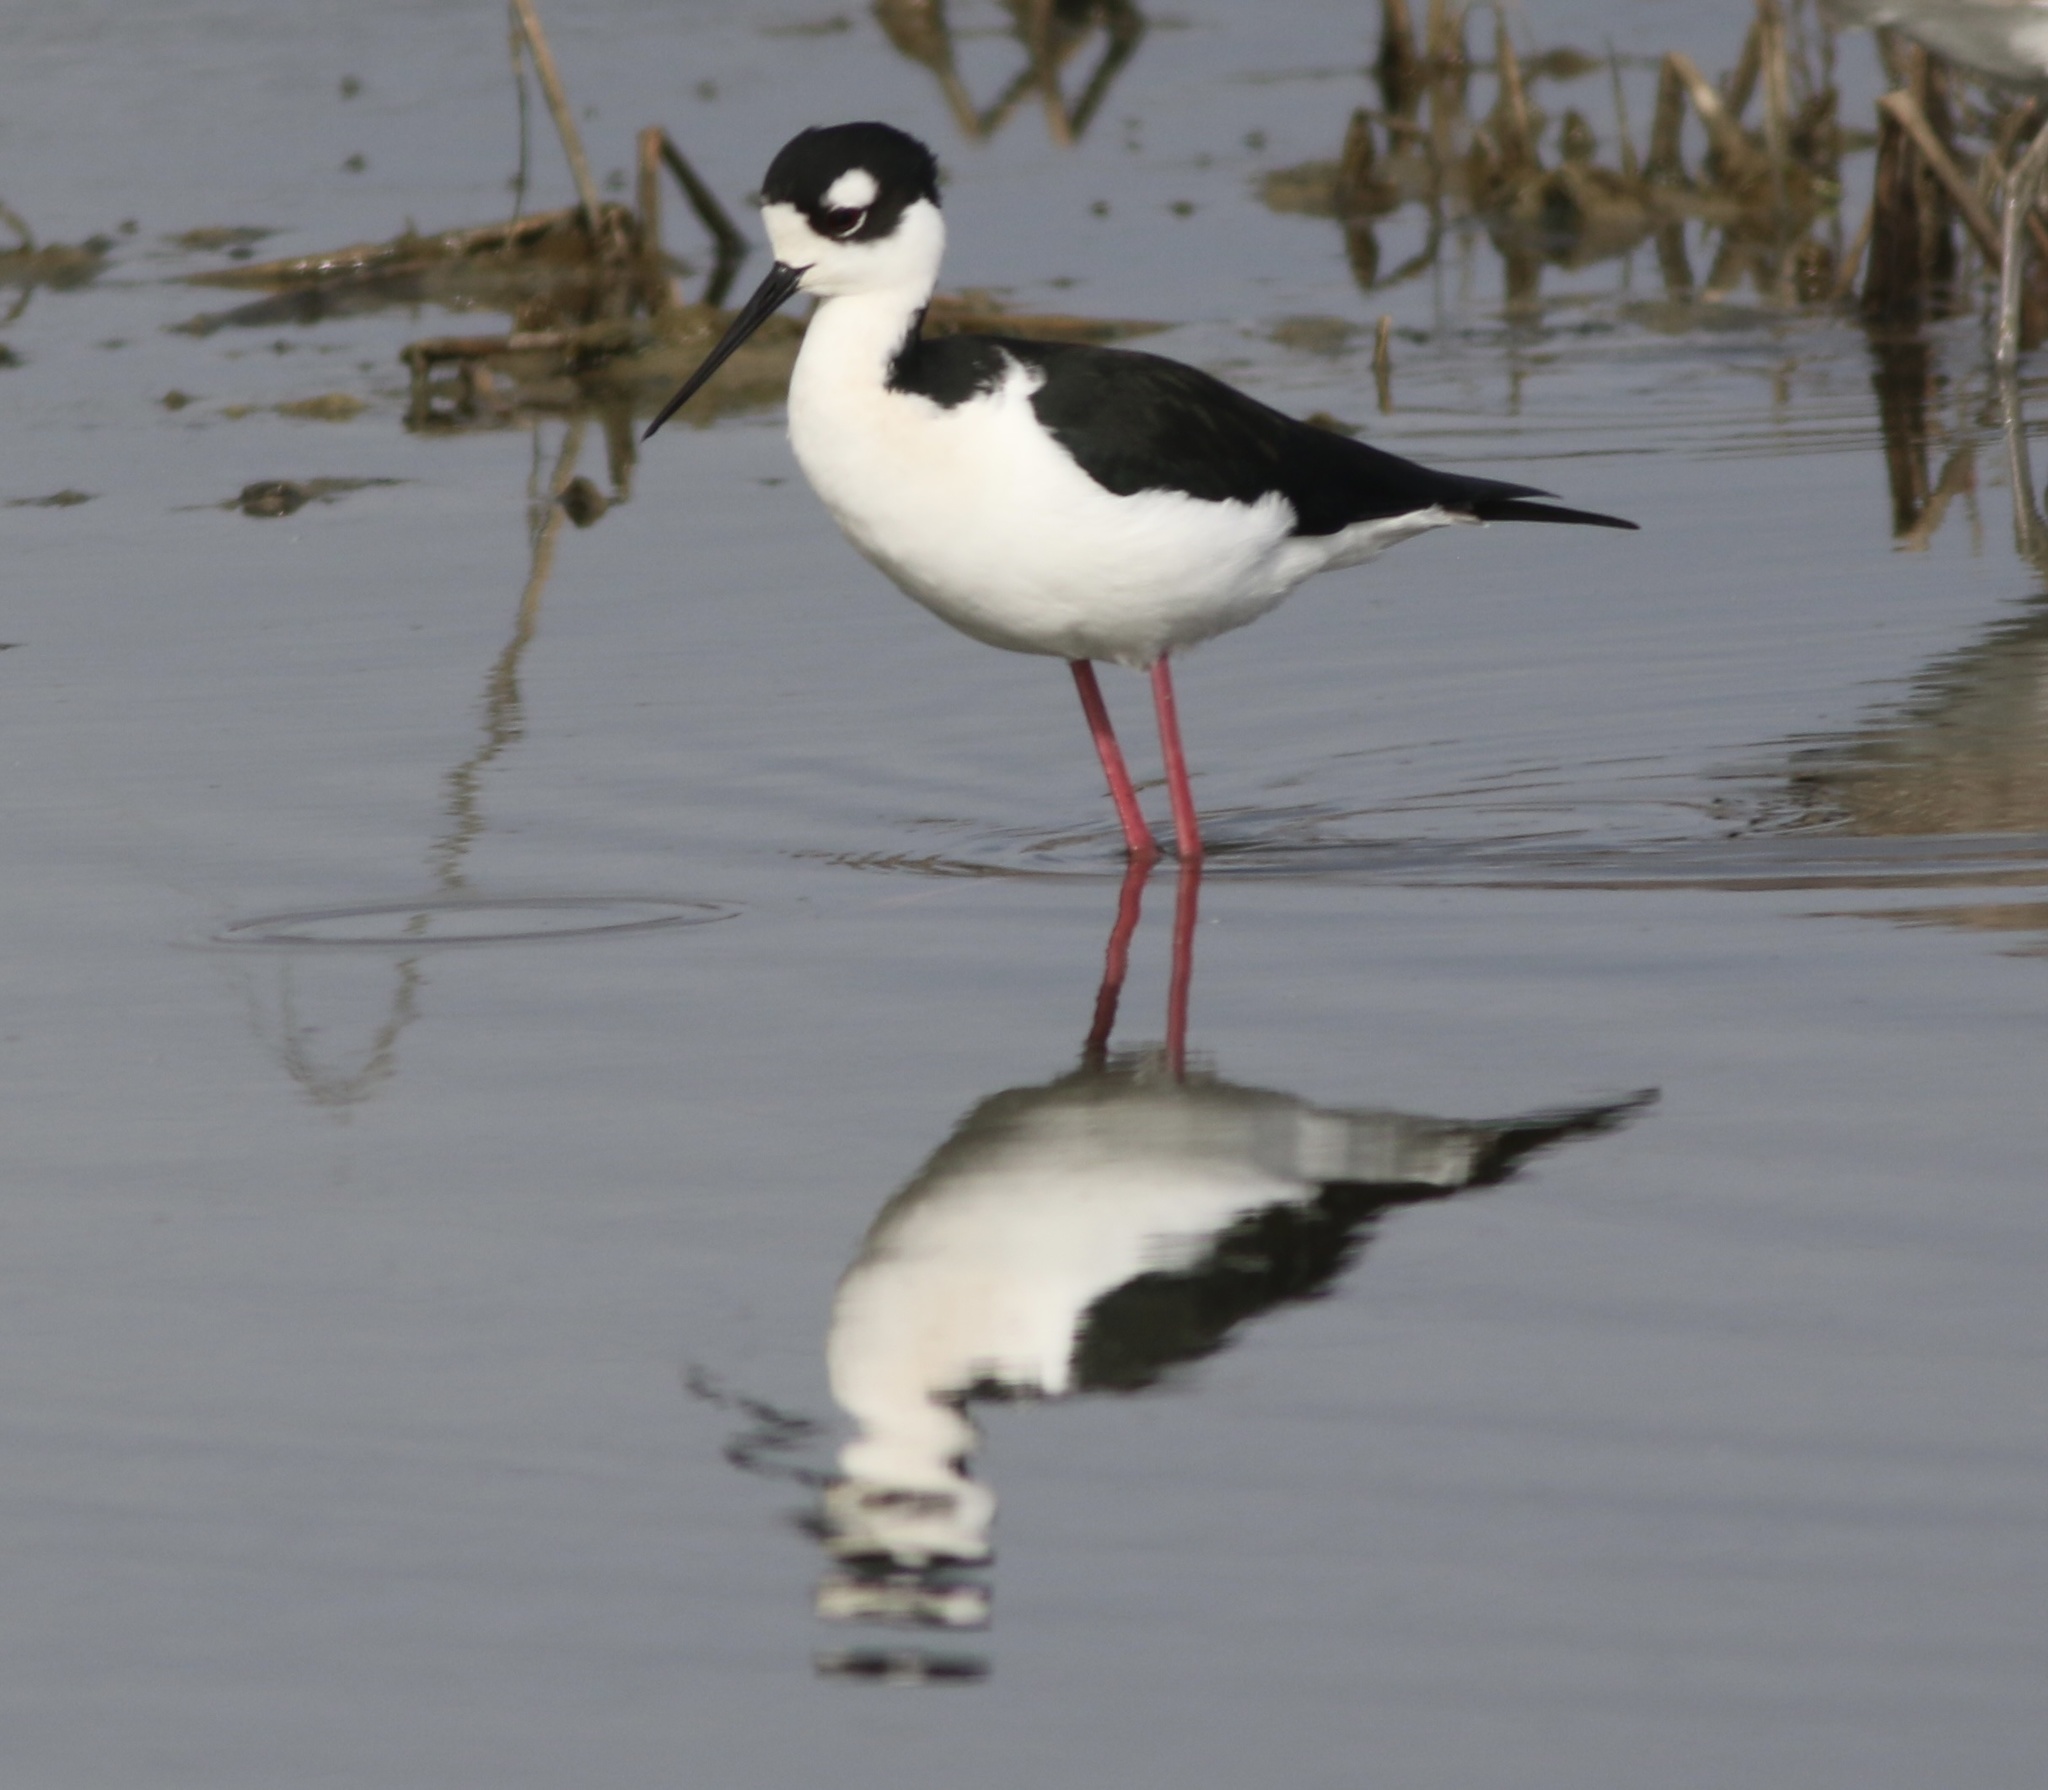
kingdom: Animalia
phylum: Chordata
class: Aves
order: Charadriiformes
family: Recurvirostridae
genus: Himantopus
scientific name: Himantopus mexicanus
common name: Black-necked stilt
